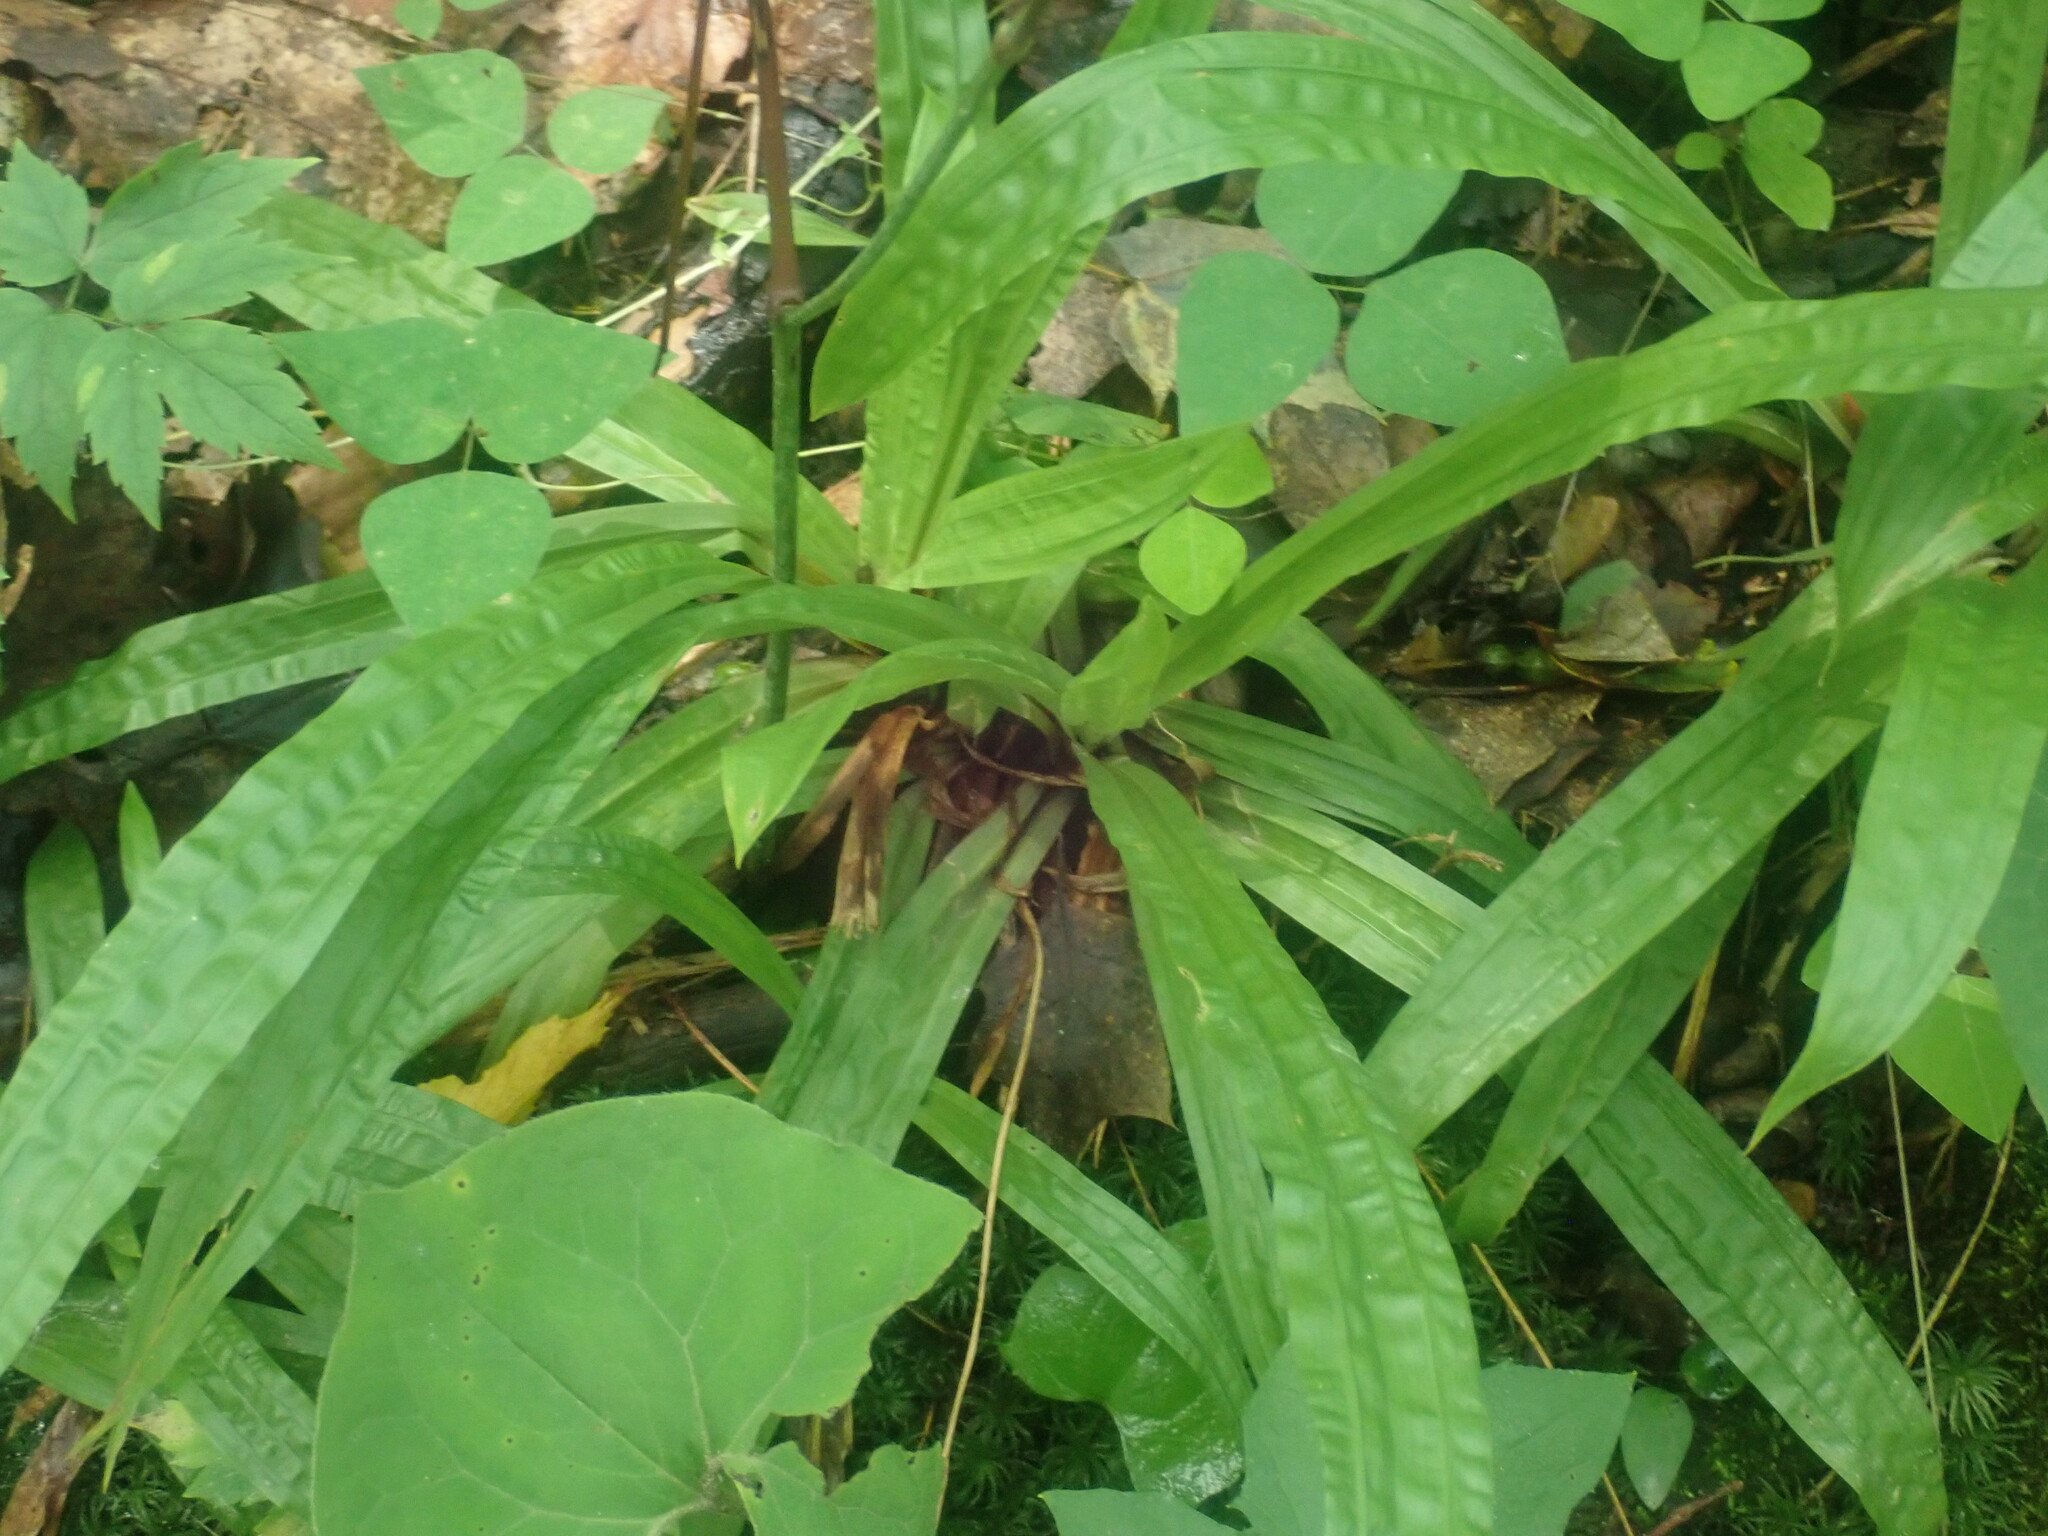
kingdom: Plantae
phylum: Tracheophyta
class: Liliopsida
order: Poales
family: Cyperaceae
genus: Carex
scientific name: Carex plantaginea
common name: Plantain-leaved sedge
